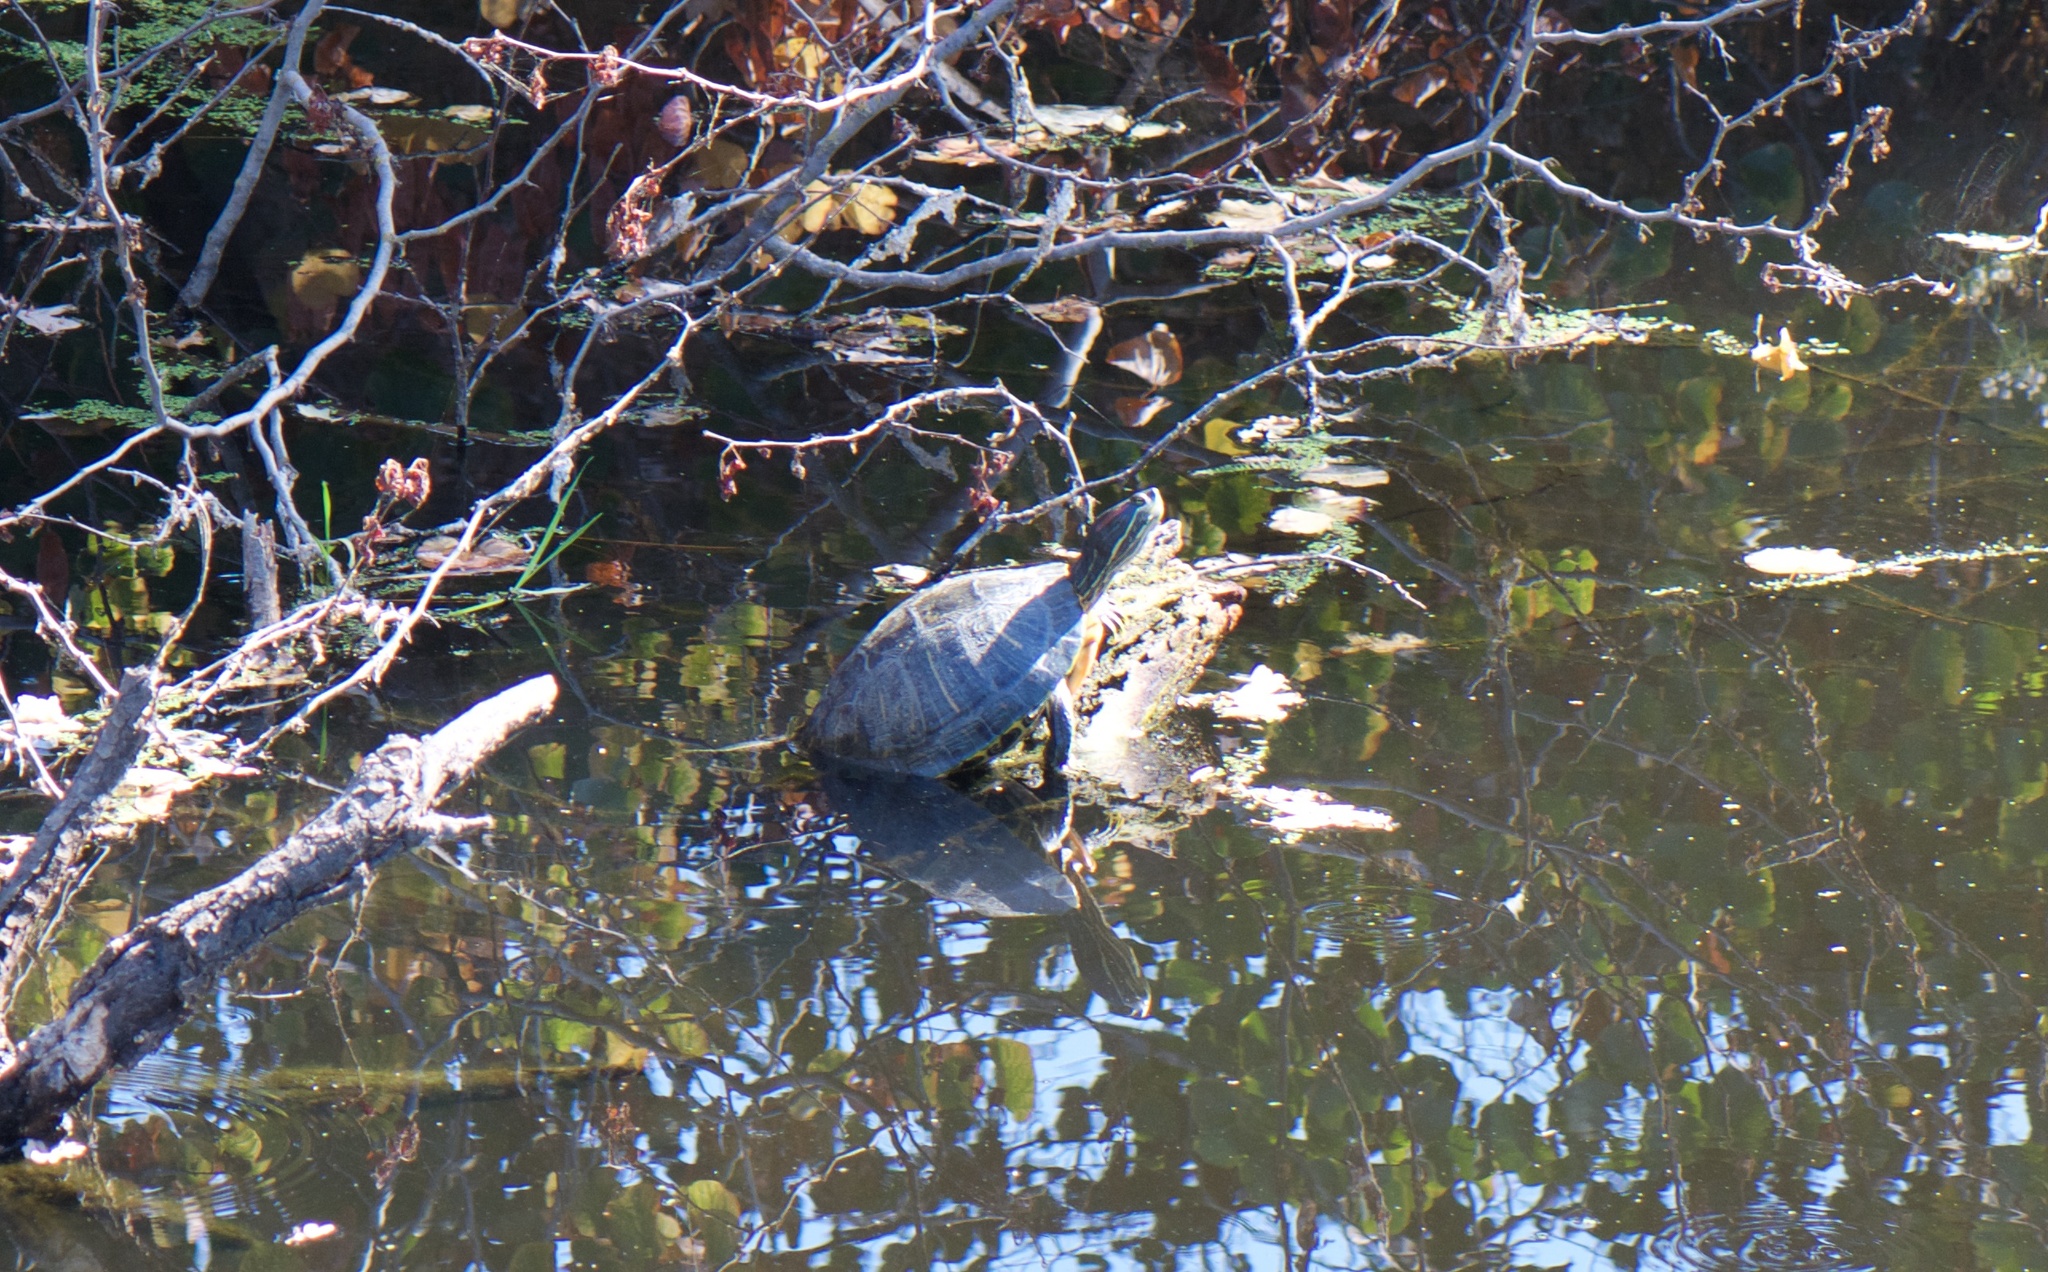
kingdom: Animalia
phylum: Chordata
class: Testudines
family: Emydidae
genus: Trachemys
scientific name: Trachemys scripta
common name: Slider
